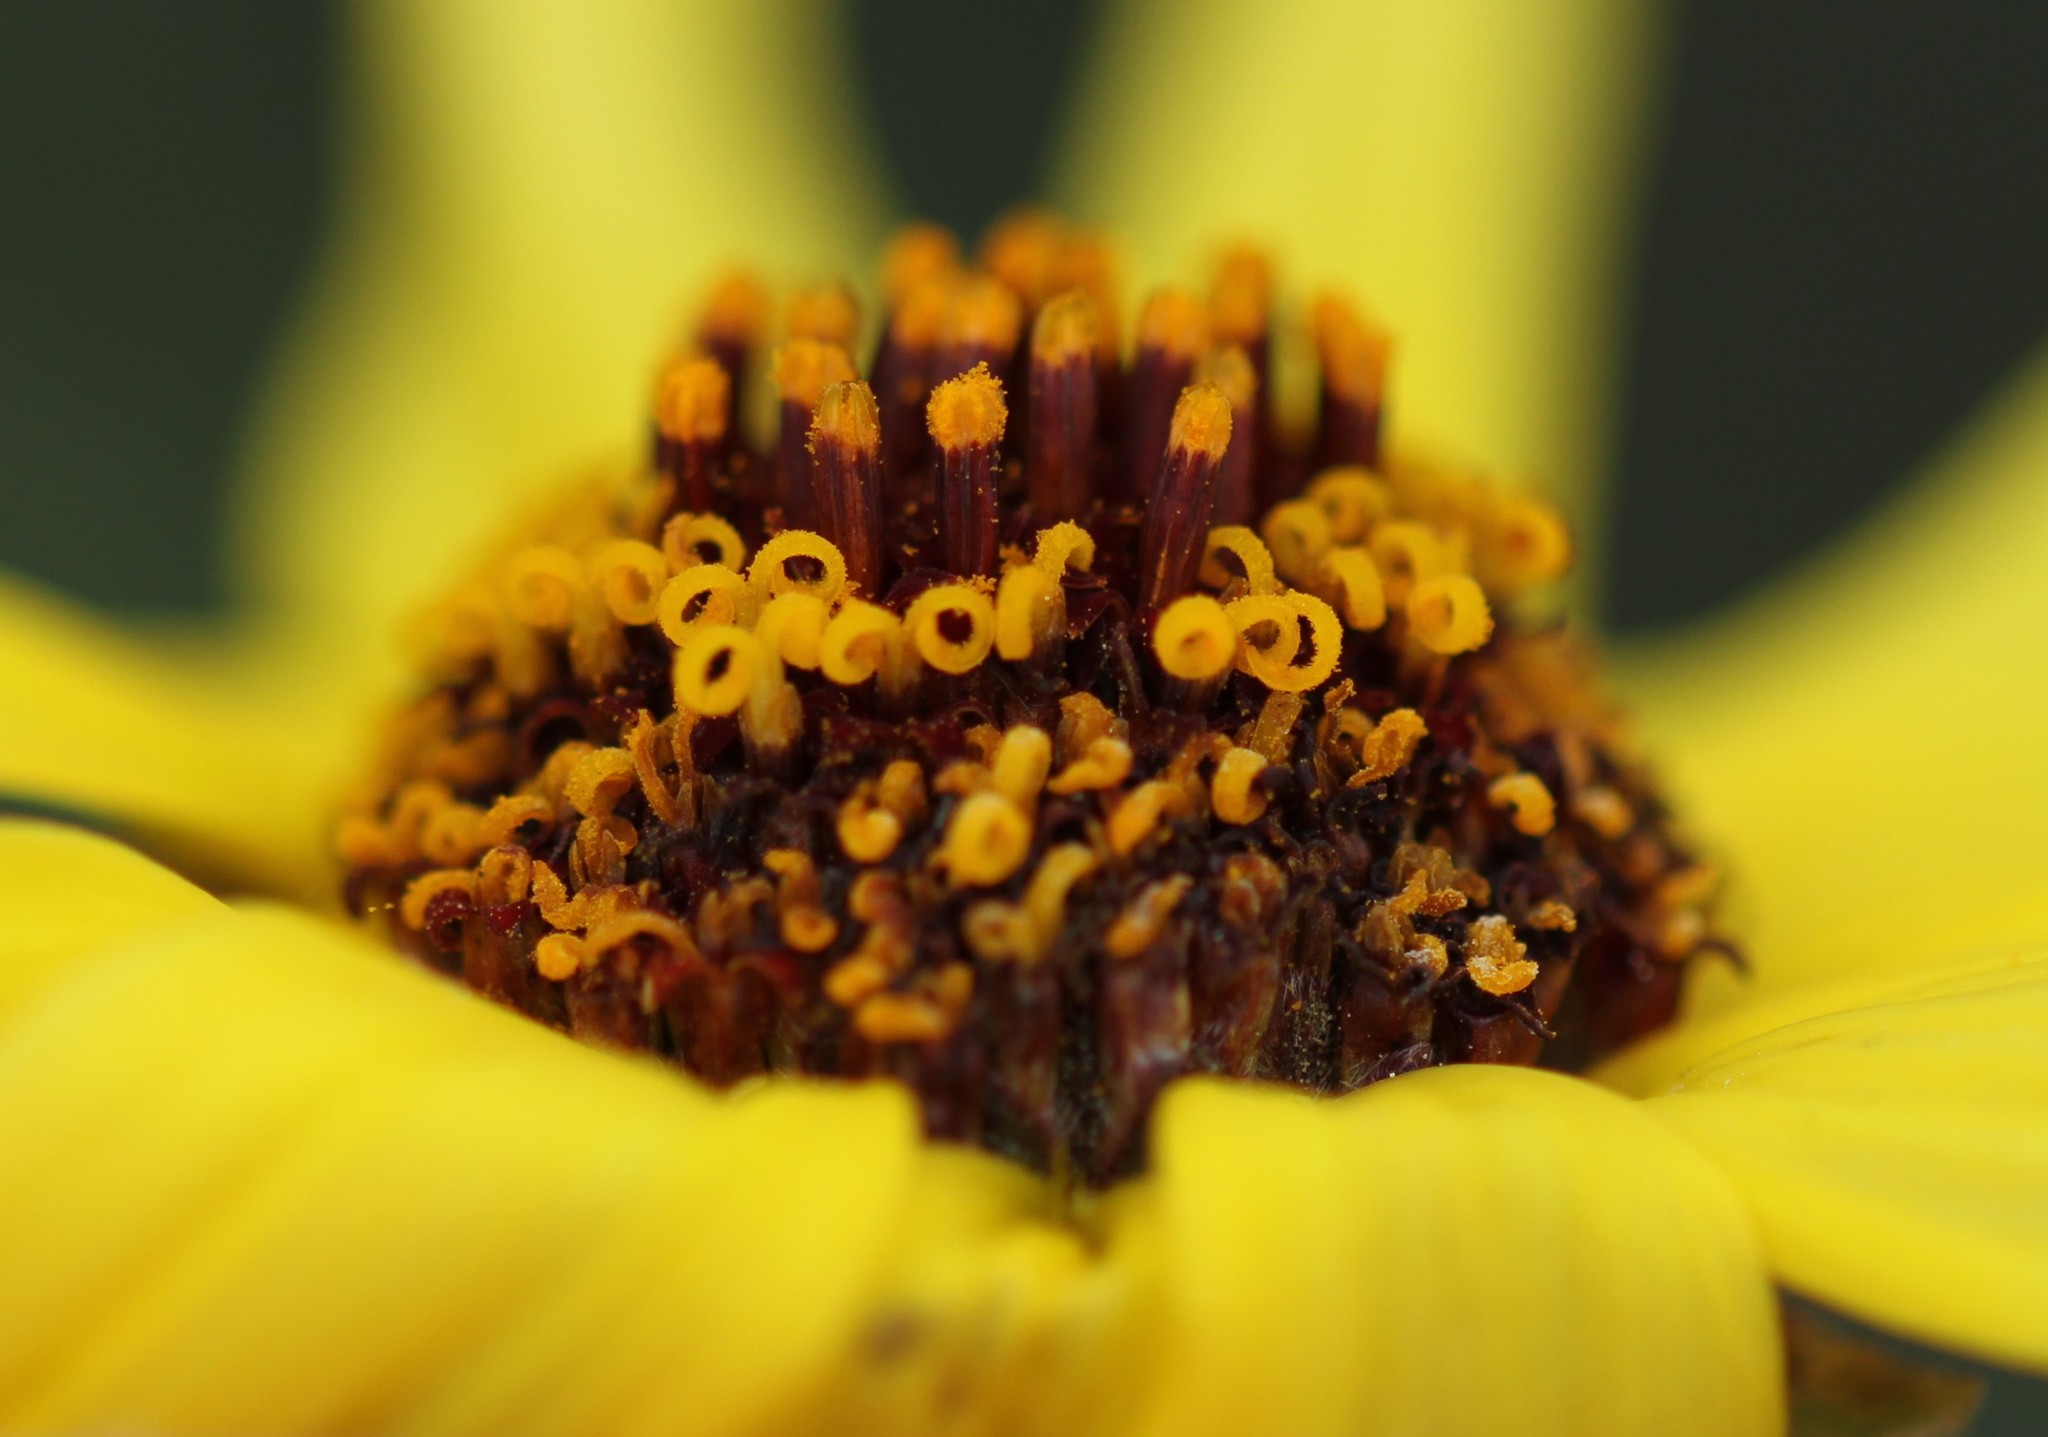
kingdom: Plantae
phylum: Tracheophyta
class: Magnoliopsida
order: Asterales
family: Asteraceae
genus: Encelia
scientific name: Encelia californica
